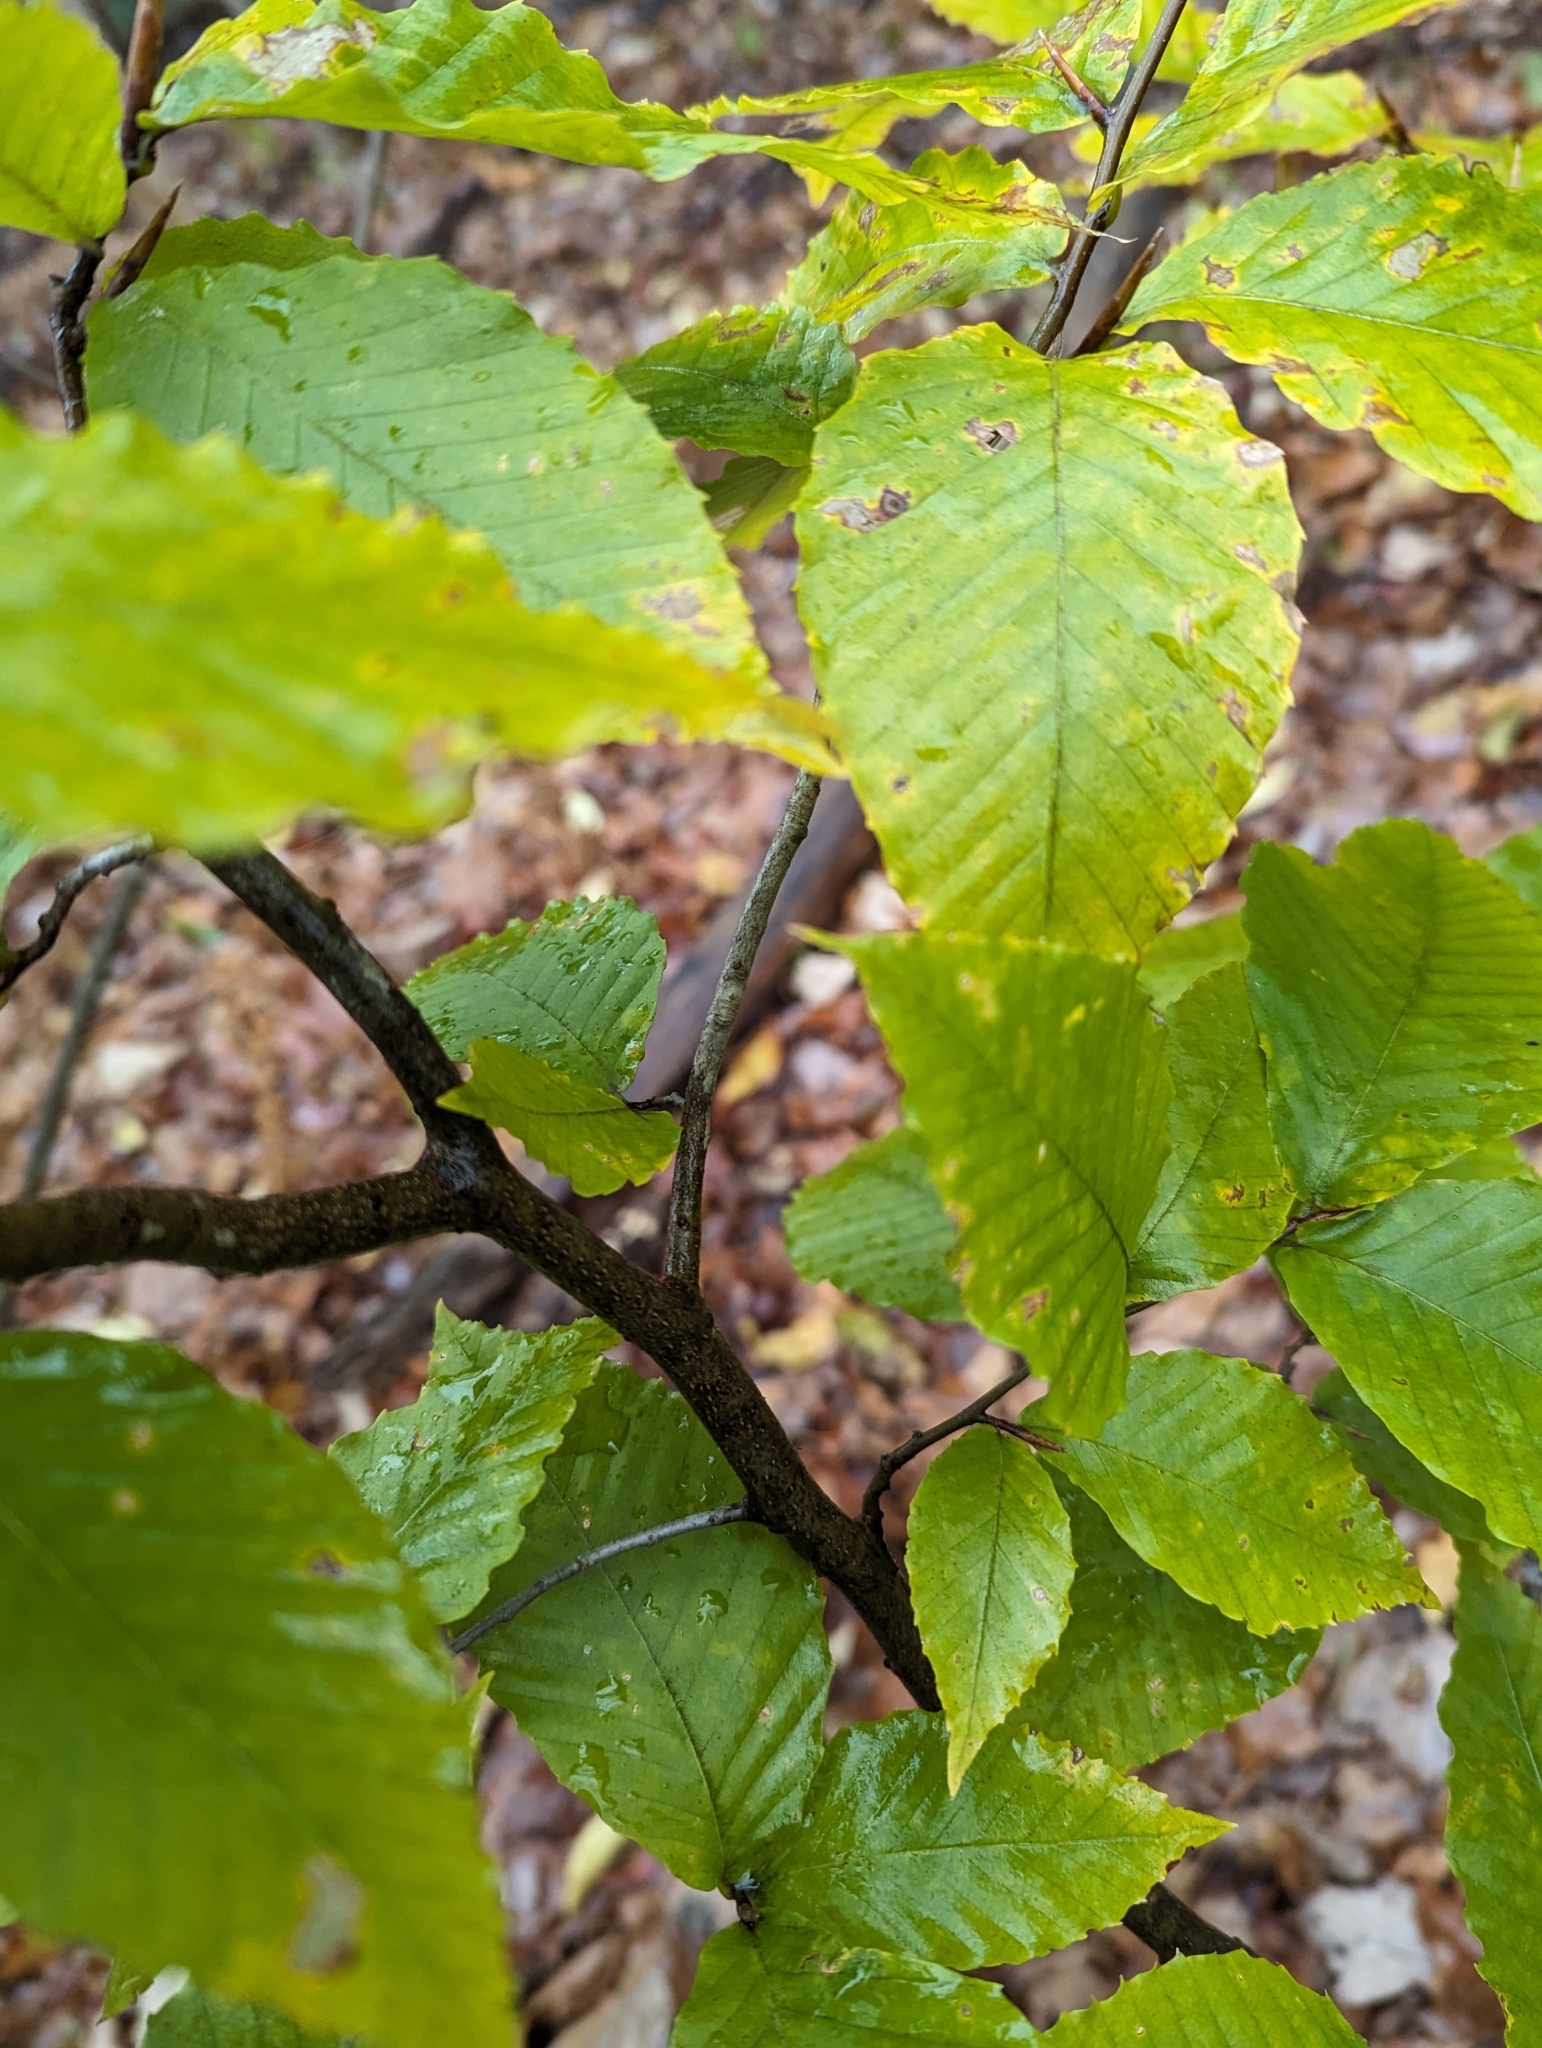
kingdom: Plantae
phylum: Tracheophyta
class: Magnoliopsida
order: Fagales
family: Fagaceae
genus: Fagus
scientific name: Fagus grandifolia
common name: American beech
